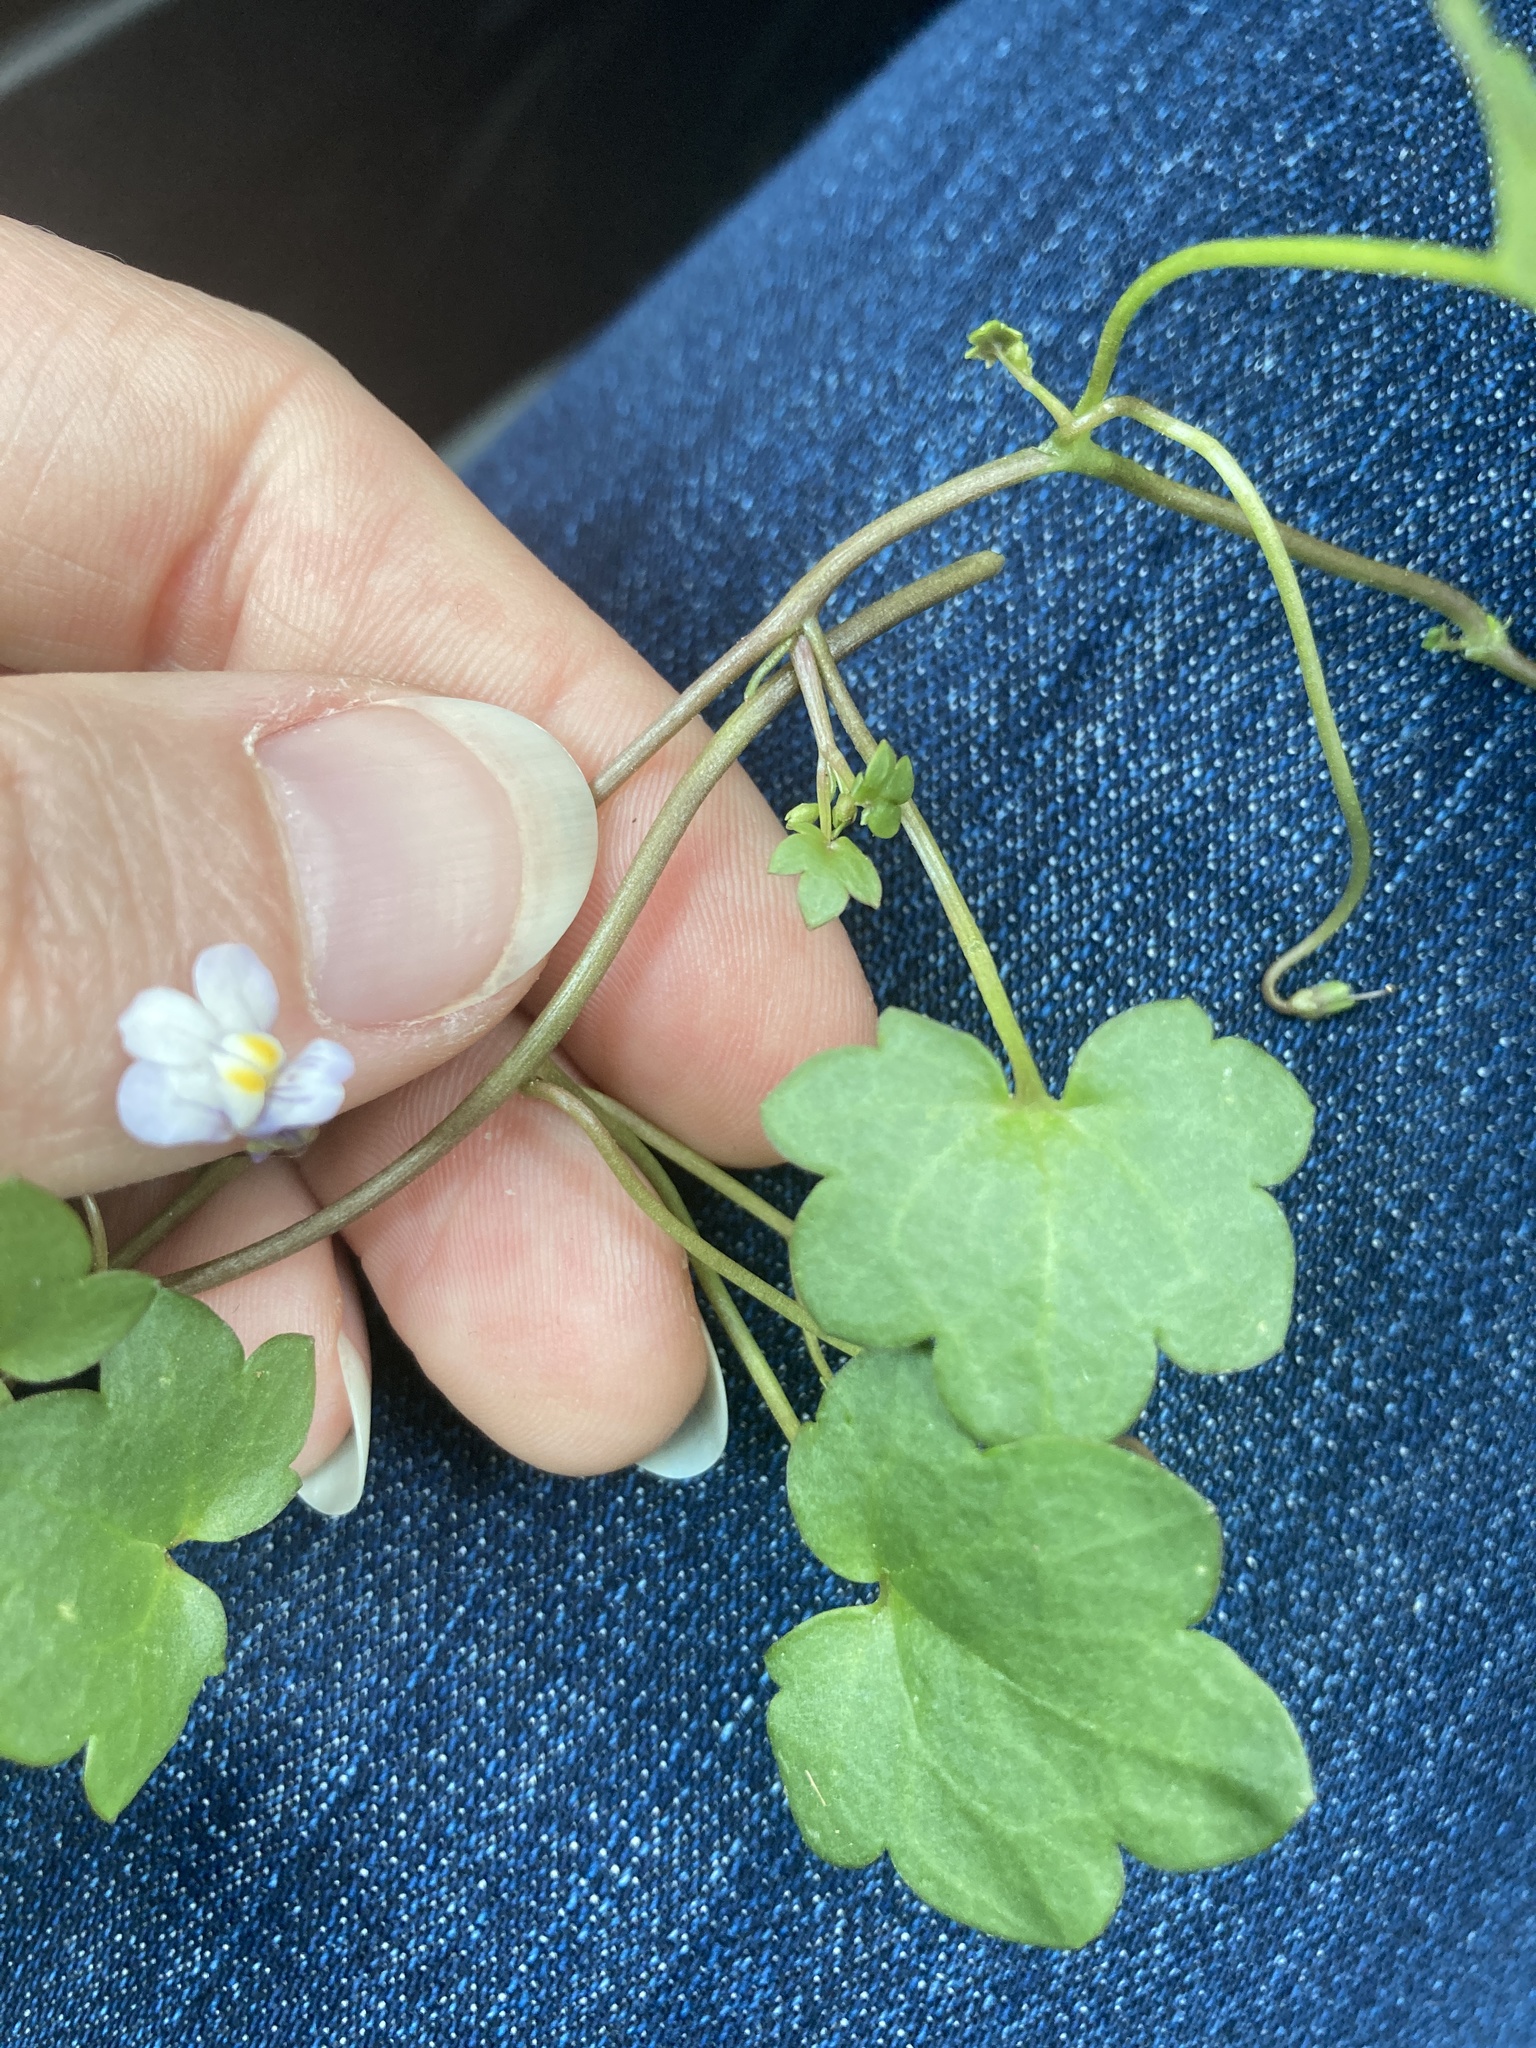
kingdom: Plantae
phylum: Tracheophyta
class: Magnoliopsida
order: Lamiales
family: Plantaginaceae
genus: Cymbalaria
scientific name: Cymbalaria muralis
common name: Ivy-leaved toadflax
